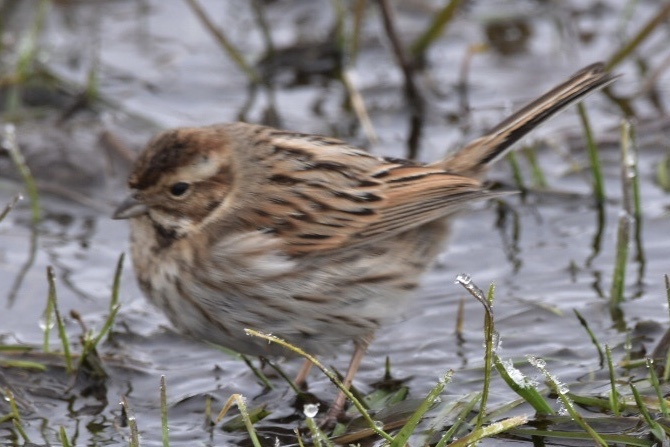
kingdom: Animalia
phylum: Chordata
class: Aves
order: Passeriformes
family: Emberizidae
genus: Emberiza
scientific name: Emberiza schoeniclus
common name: Reed bunting
